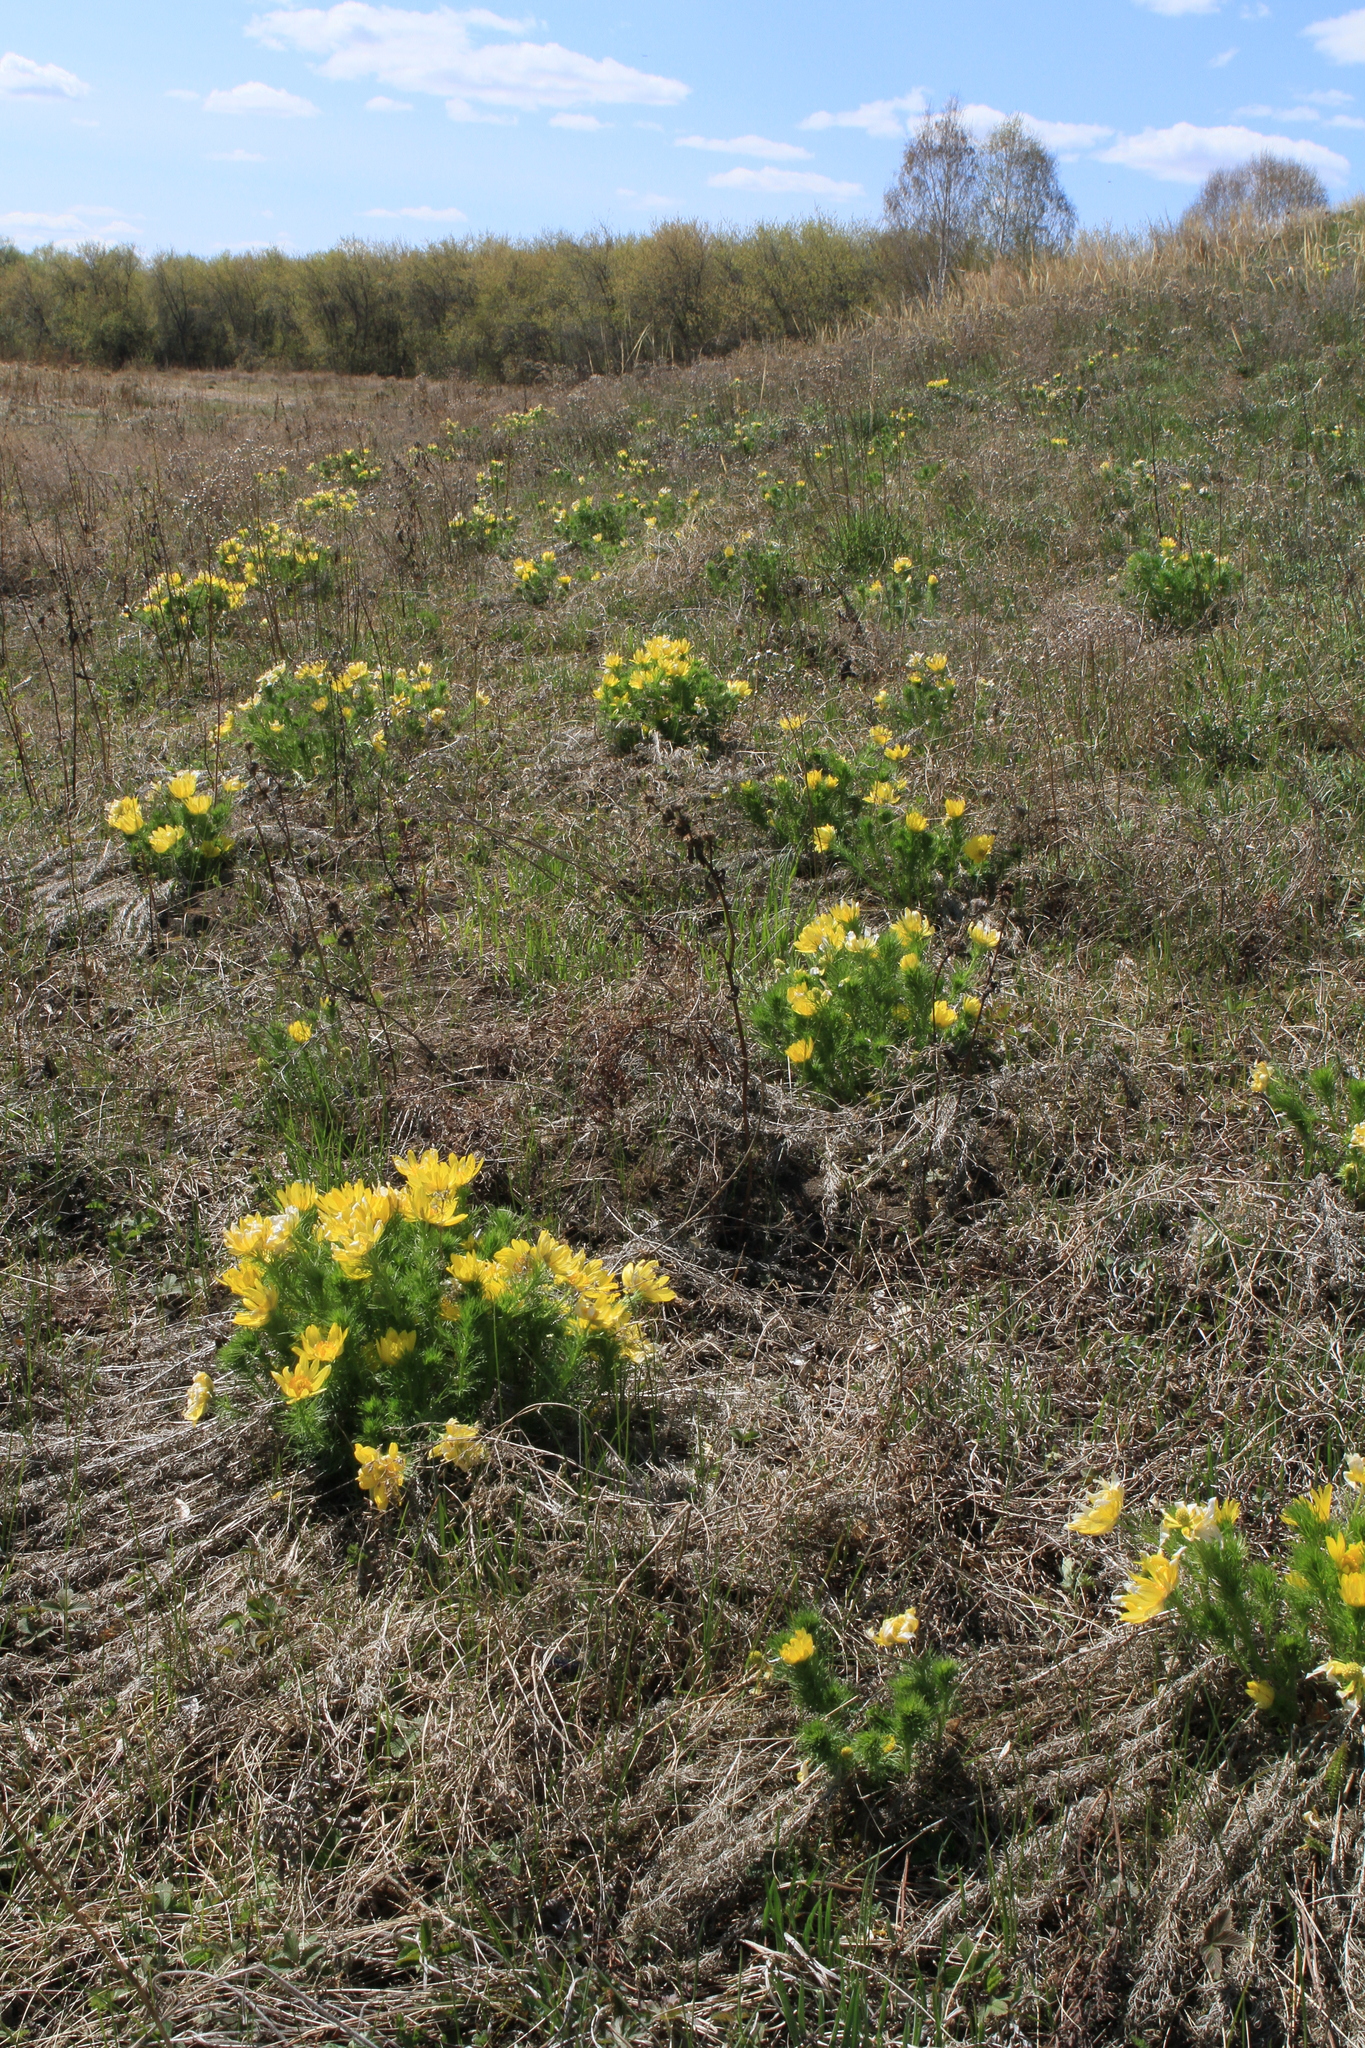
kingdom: Plantae
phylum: Tracheophyta
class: Magnoliopsida
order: Ranunculales
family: Ranunculaceae
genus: Adonis
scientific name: Adonis vernalis
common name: Yellow pheasants-eye
